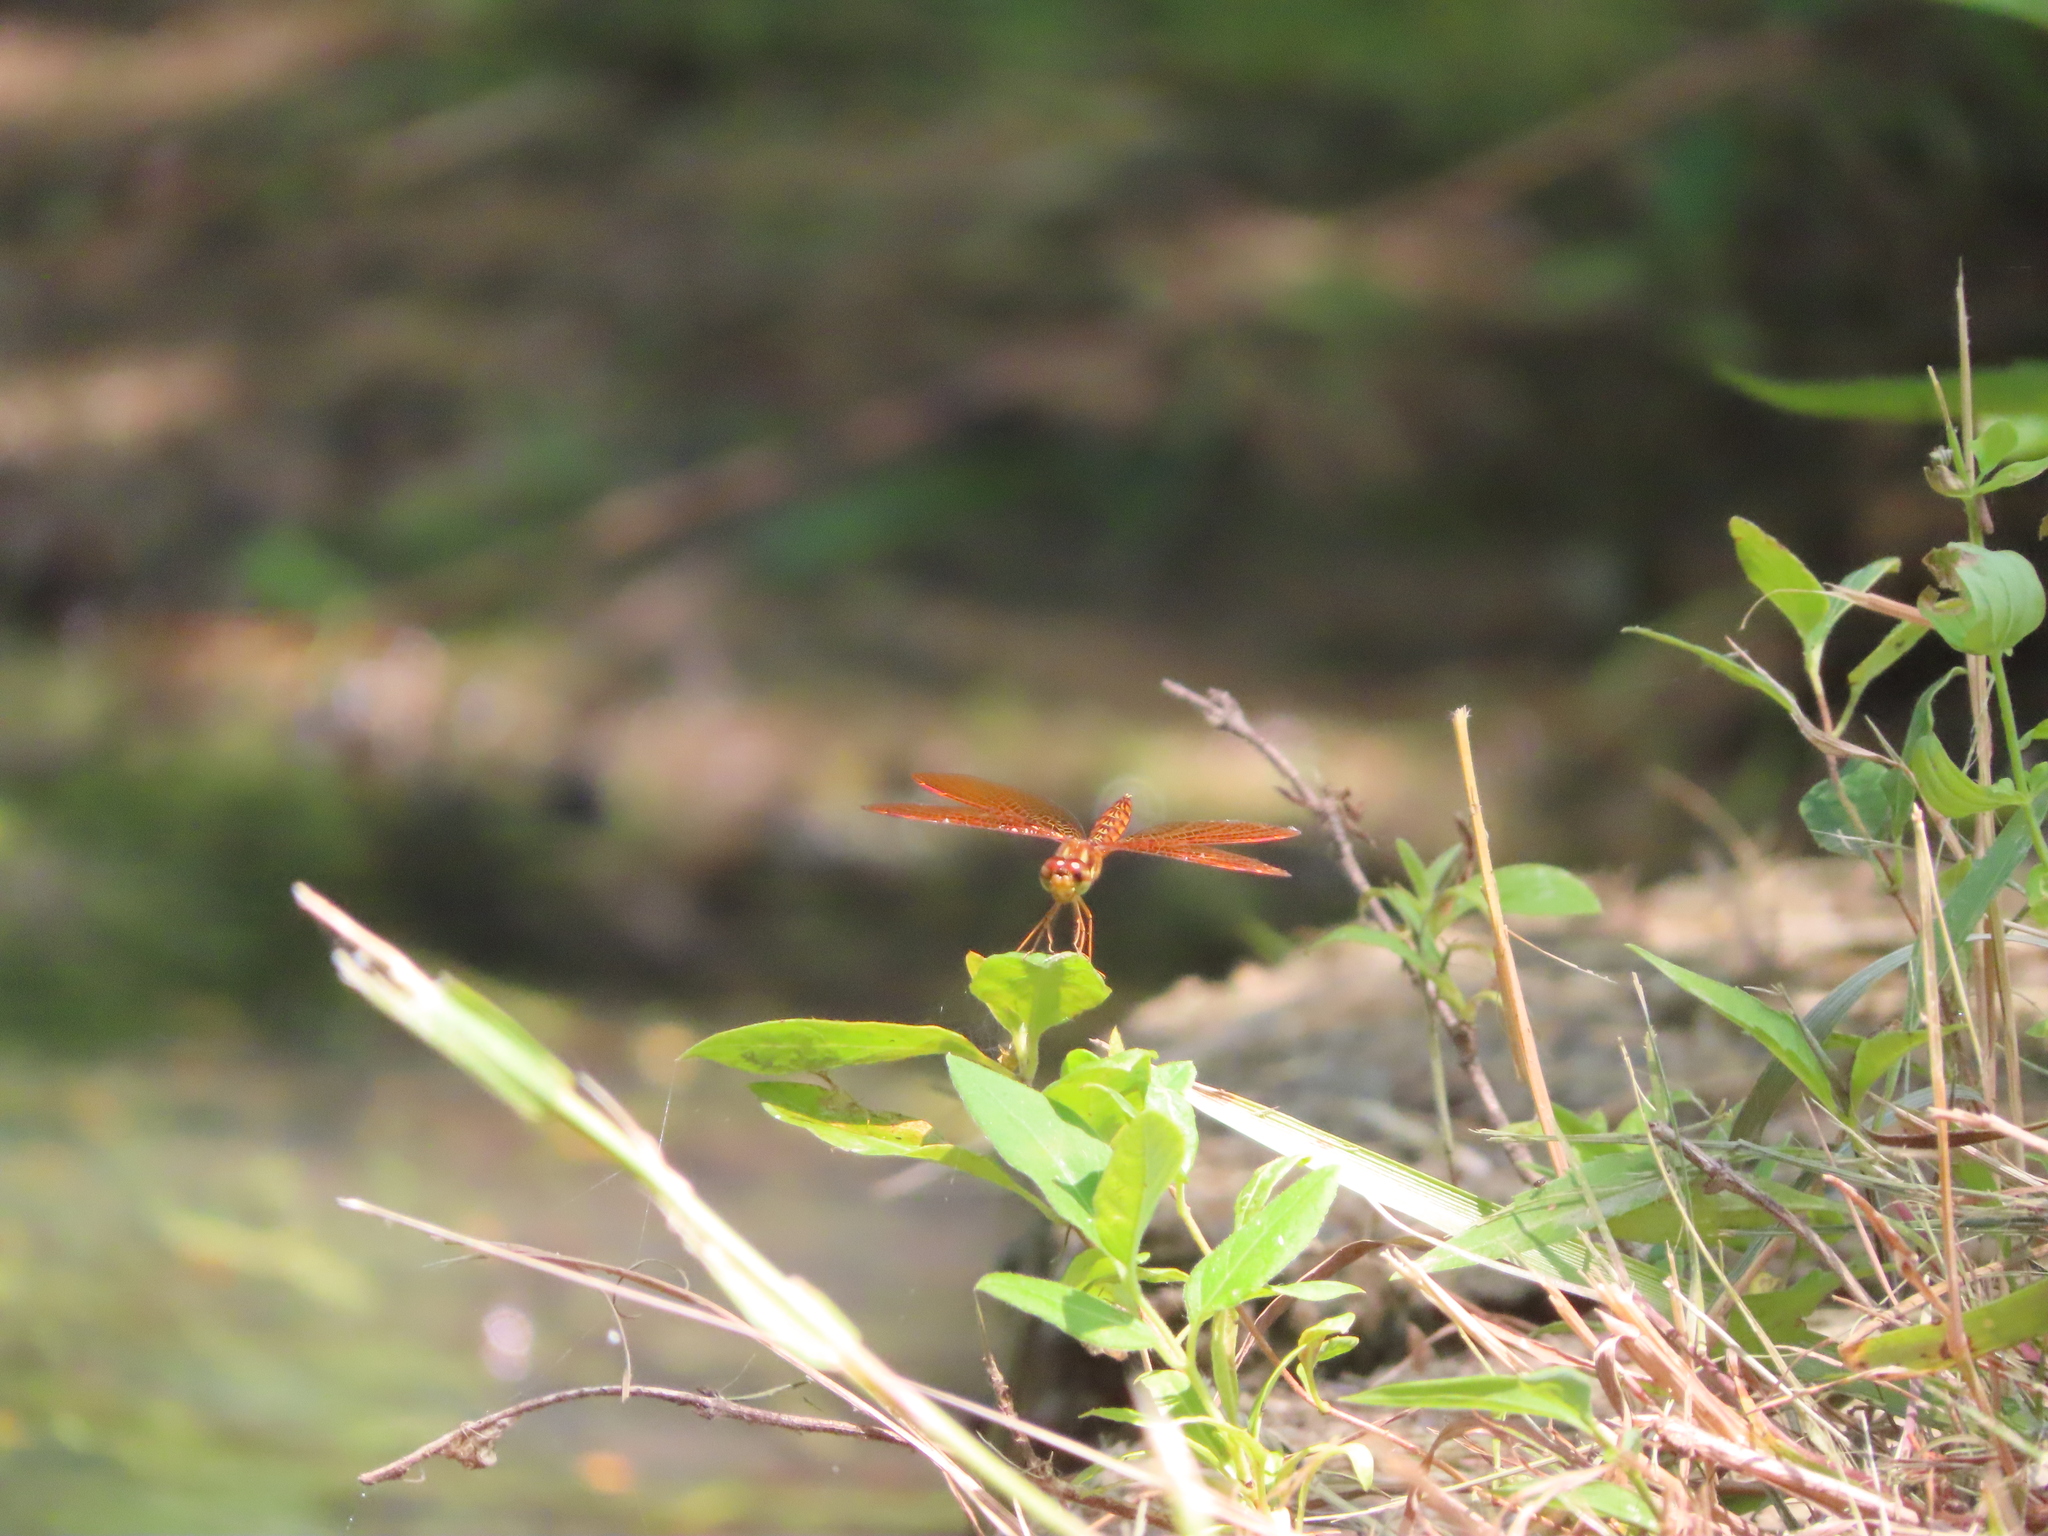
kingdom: Animalia
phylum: Arthropoda
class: Insecta
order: Odonata
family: Libellulidae
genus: Perithemis
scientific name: Perithemis tenera
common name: Eastern amberwing
